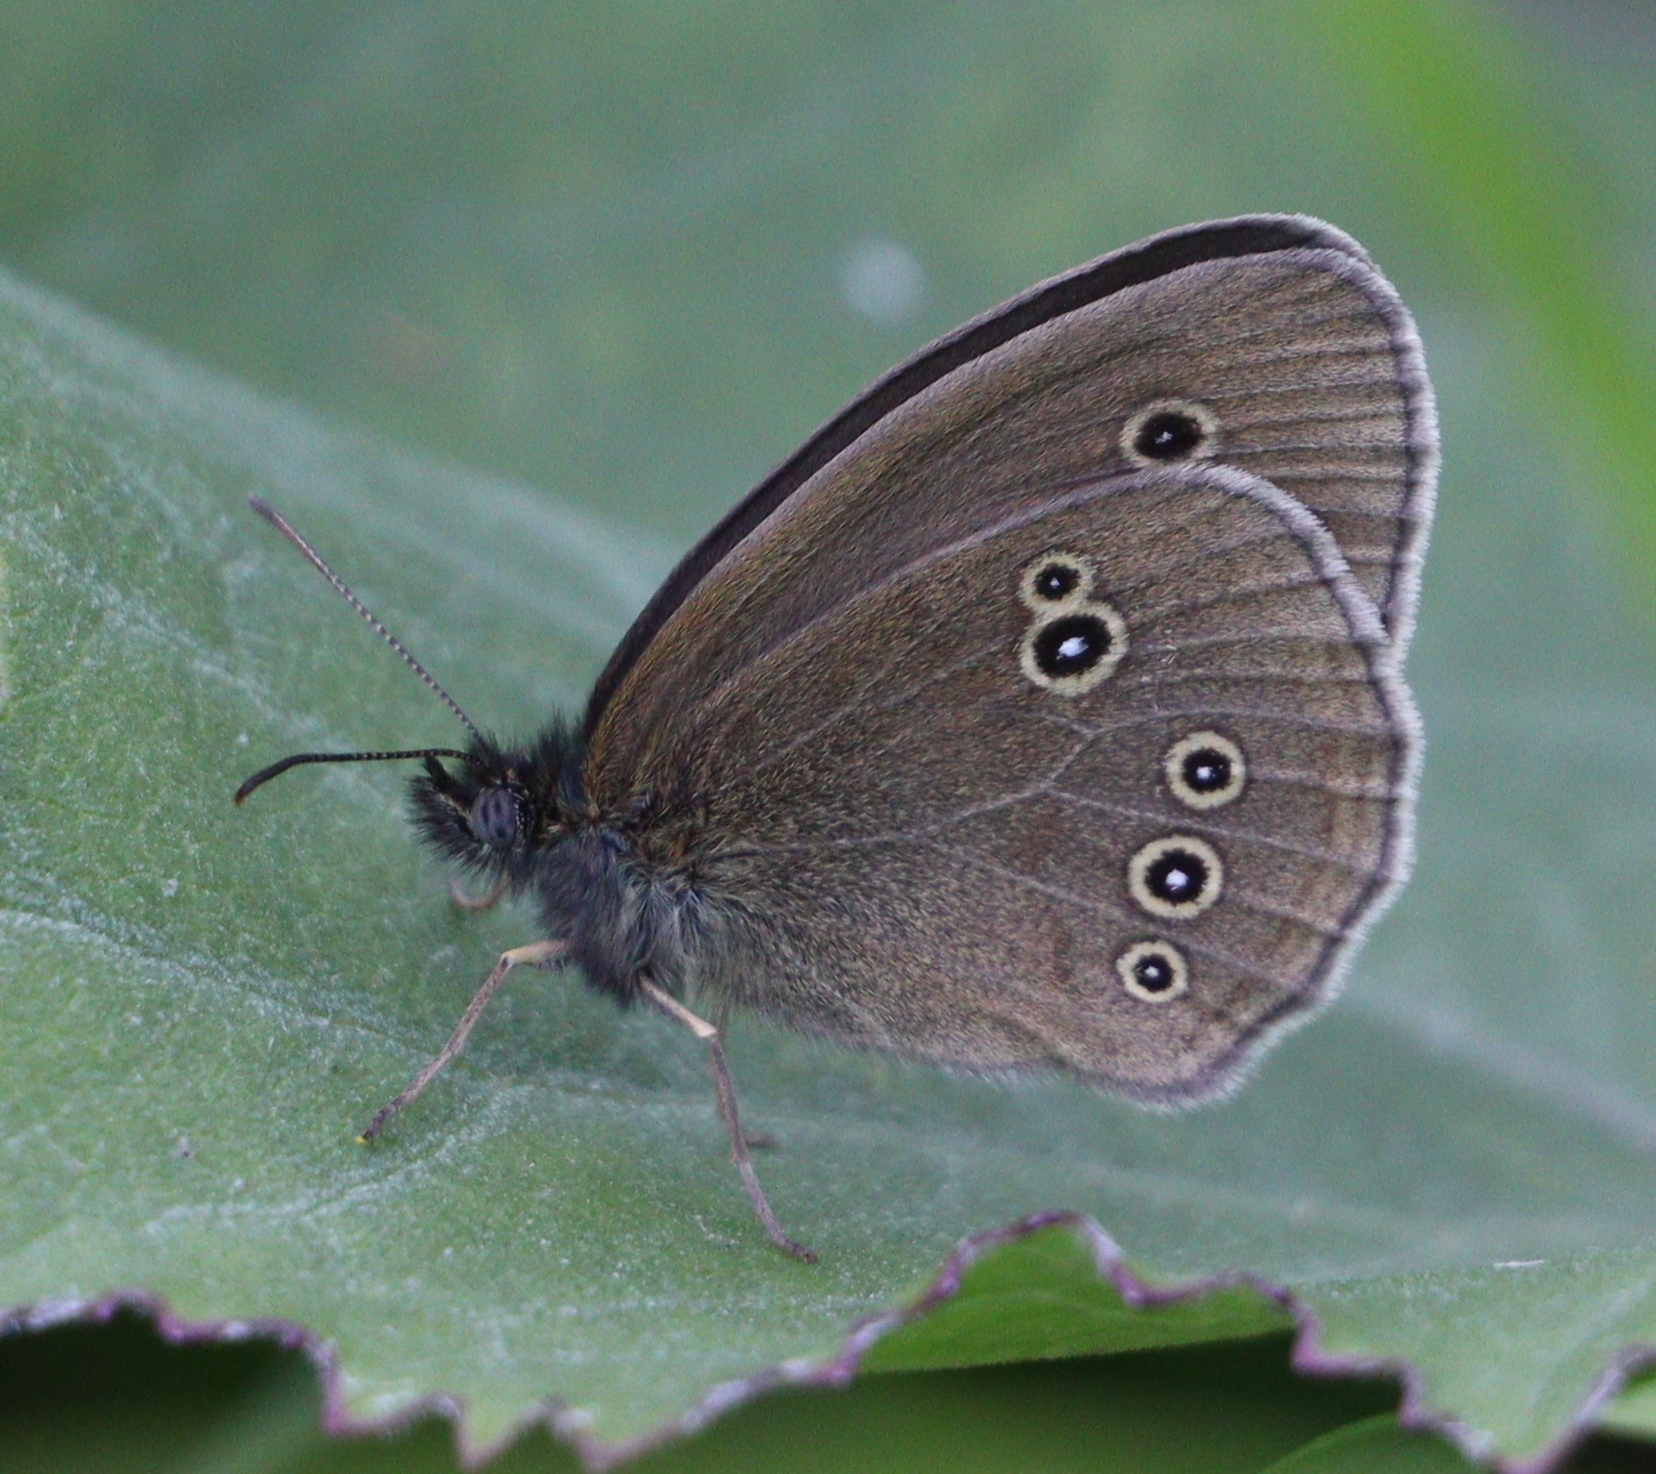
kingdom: Animalia
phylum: Arthropoda
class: Insecta
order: Lepidoptera
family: Nymphalidae
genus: Aphantopus
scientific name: Aphantopus hyperantus
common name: Ringlet
